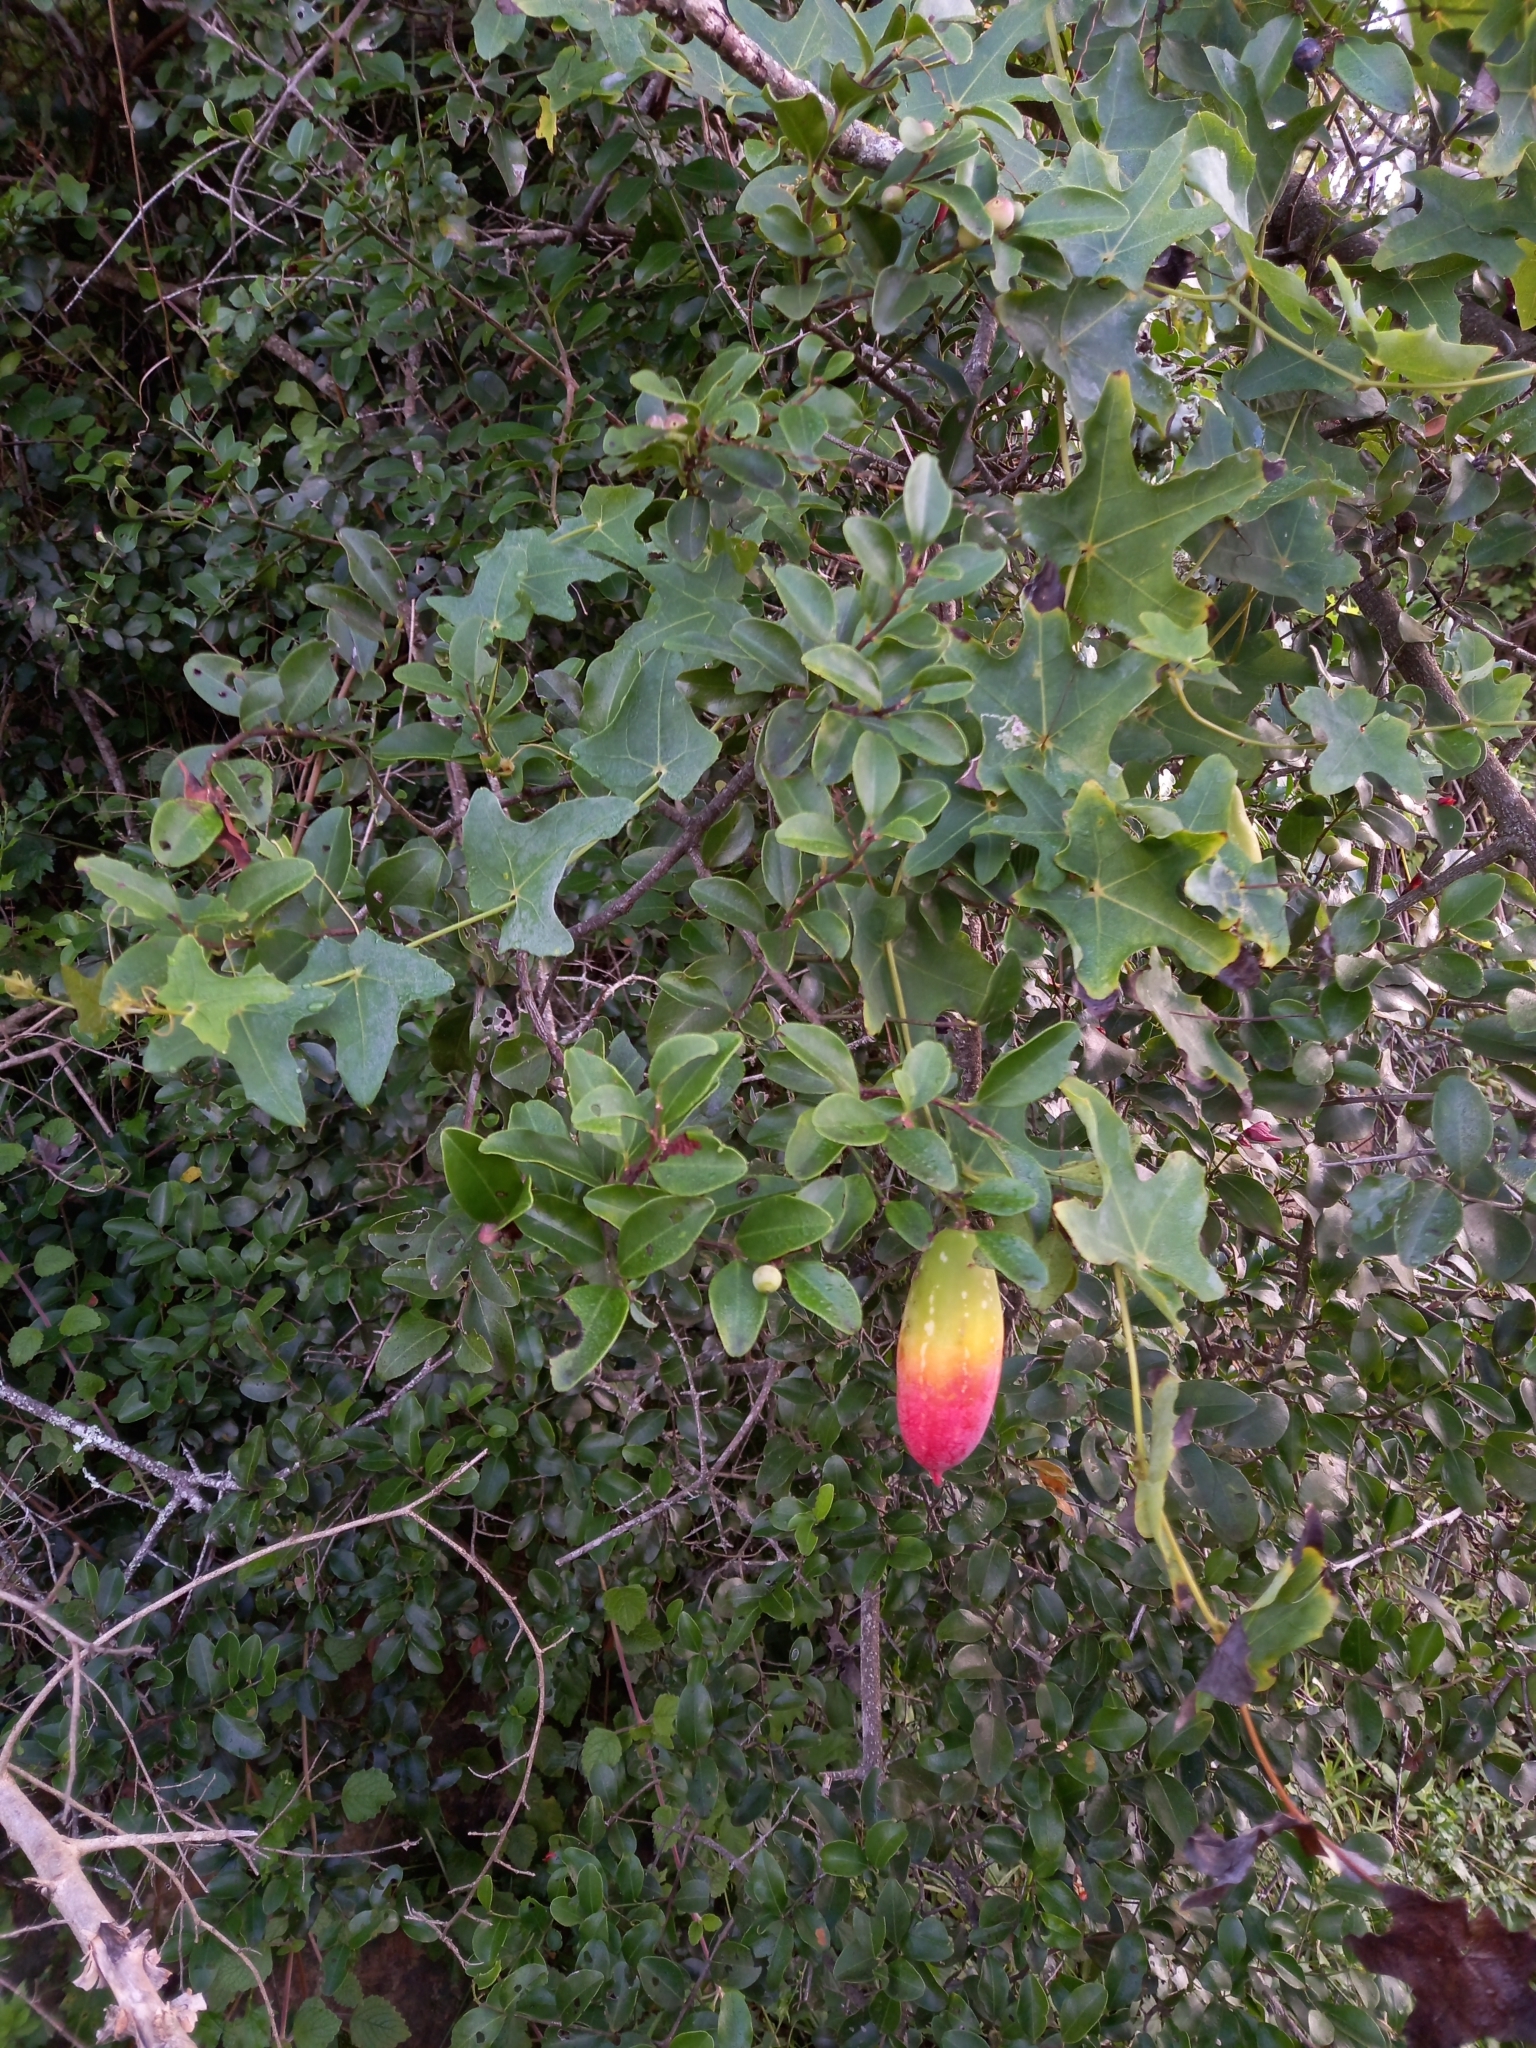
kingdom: Plantae
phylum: Tracheophyta
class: Magnoliopsida
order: Cucurbitales
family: Cucurbitaceae
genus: Coccinia
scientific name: Coccinia quinqueloba
